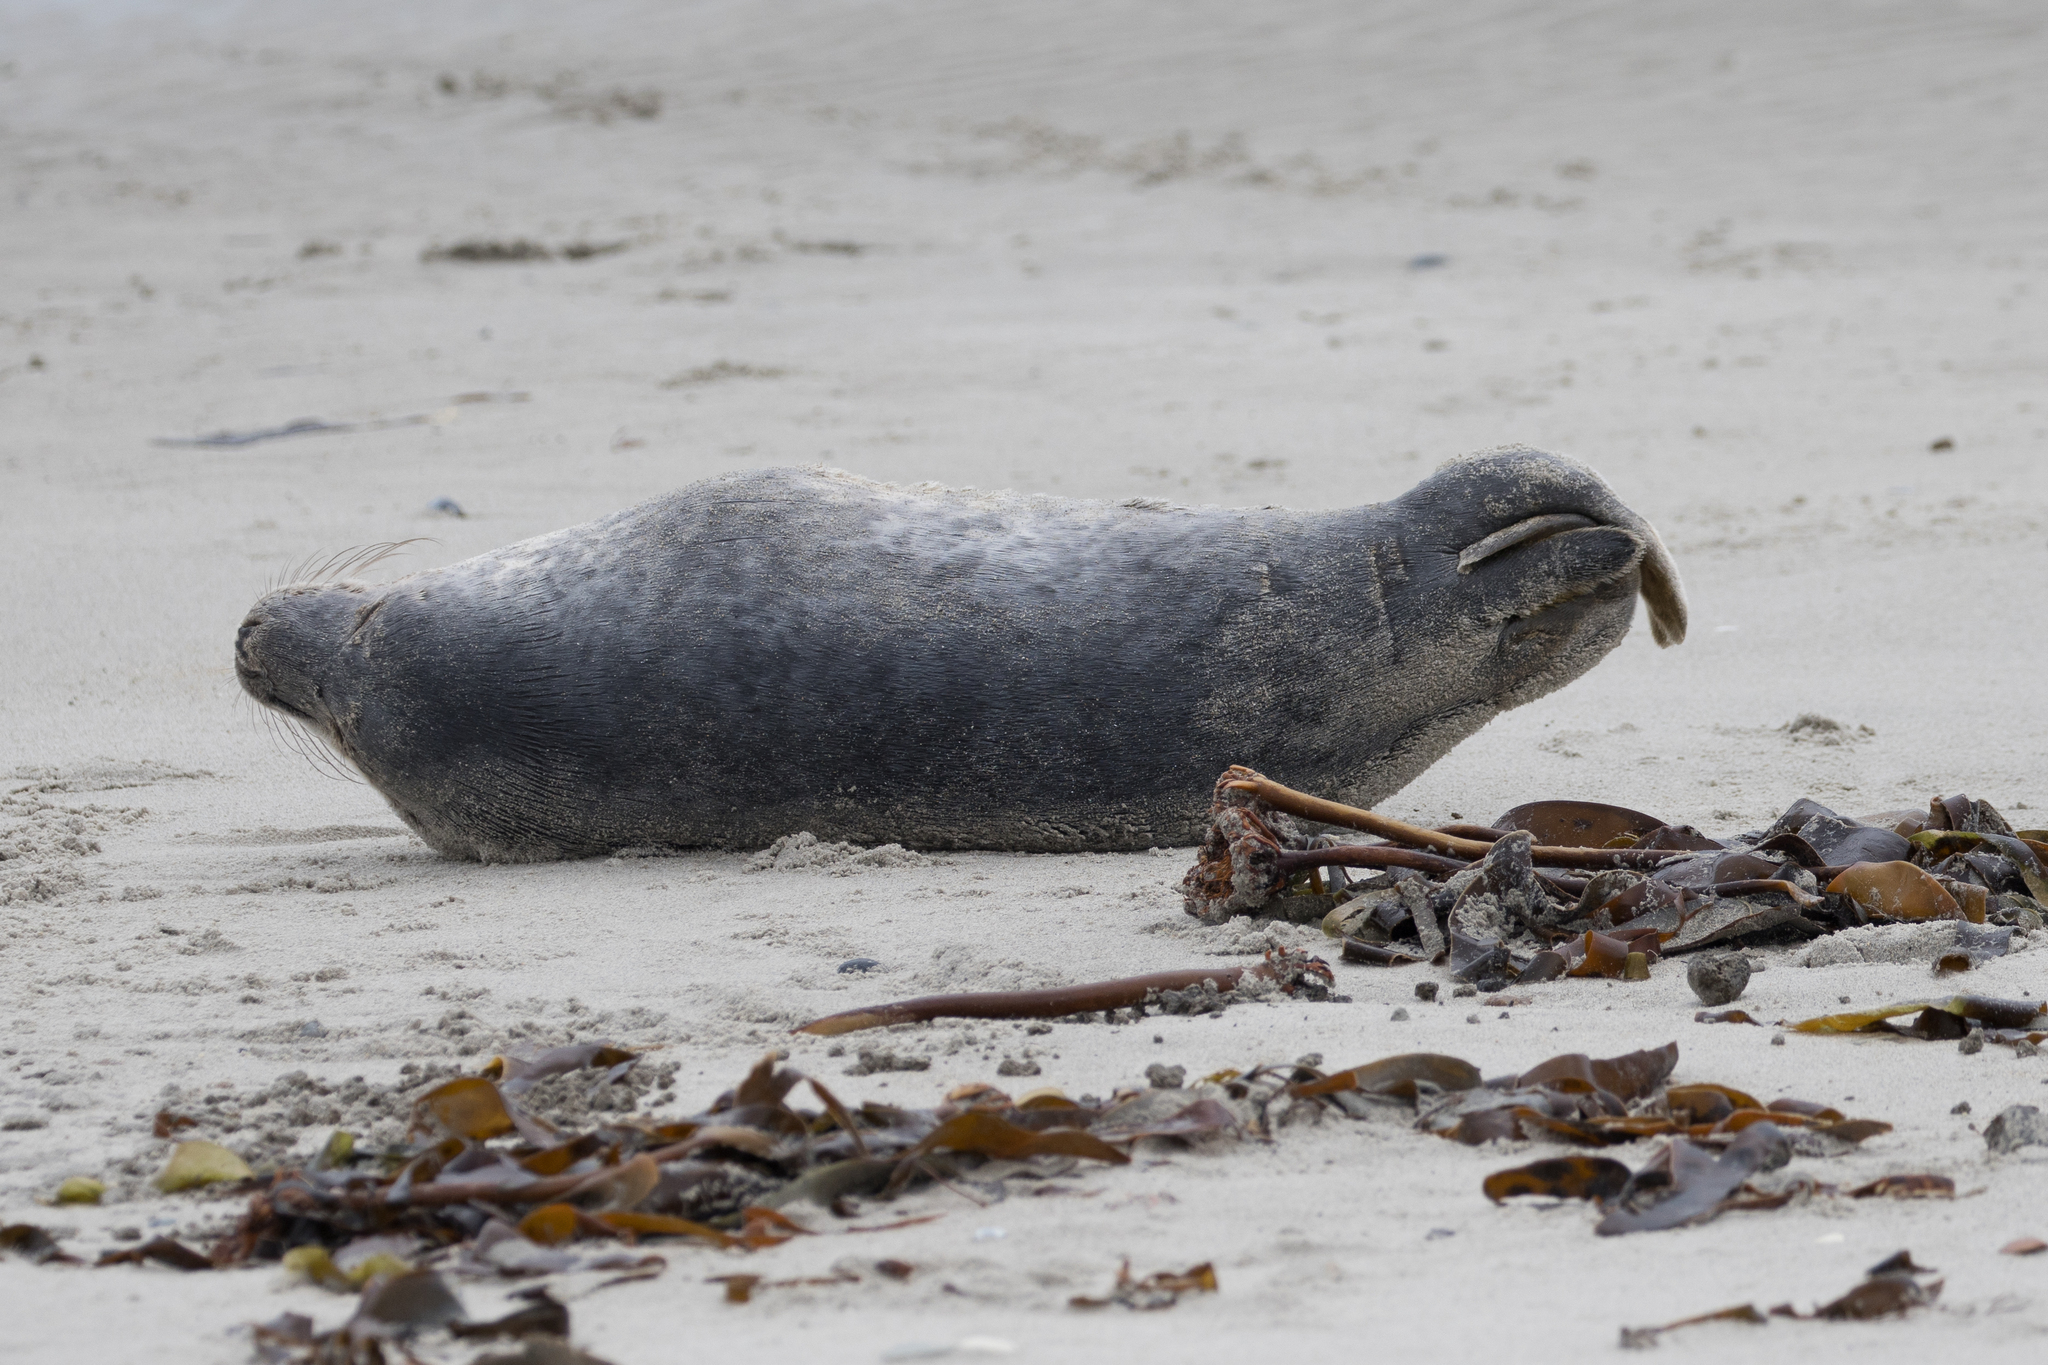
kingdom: Animalia
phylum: Chordata
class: Mammalia
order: Carnivora
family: Phocidae
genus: Halichoerus
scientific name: Halichoerus grypus
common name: Grey seal
